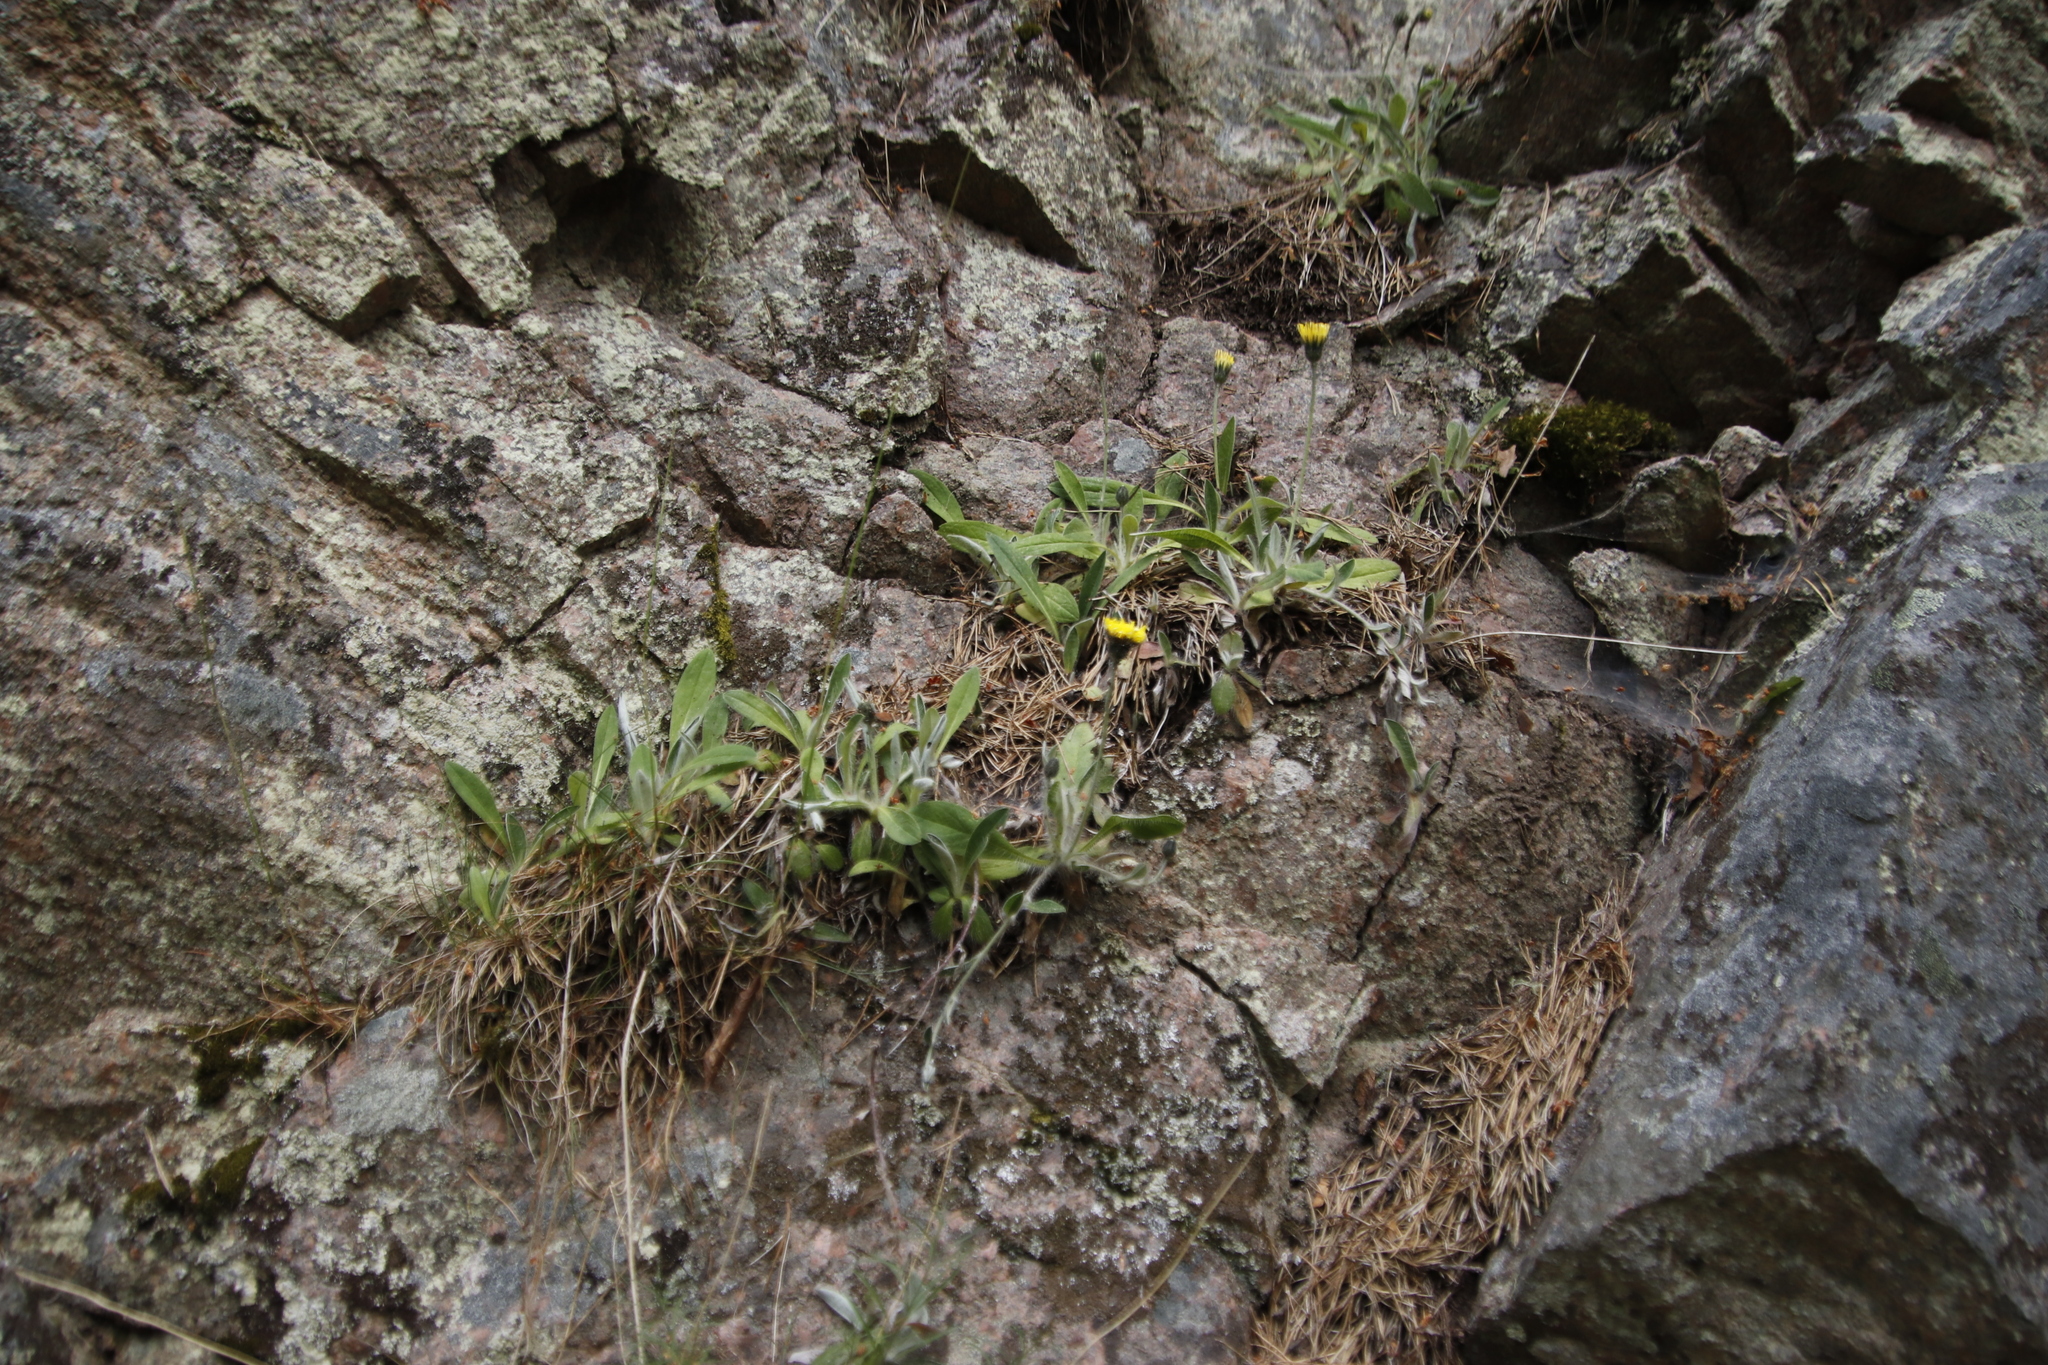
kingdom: Plantae
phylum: Tracheophyta
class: Magnoliopsida
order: Asterales
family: Asteraceae
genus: Pilosella
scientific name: Pilosella officinarum
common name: Mouse-ear hawkweed
